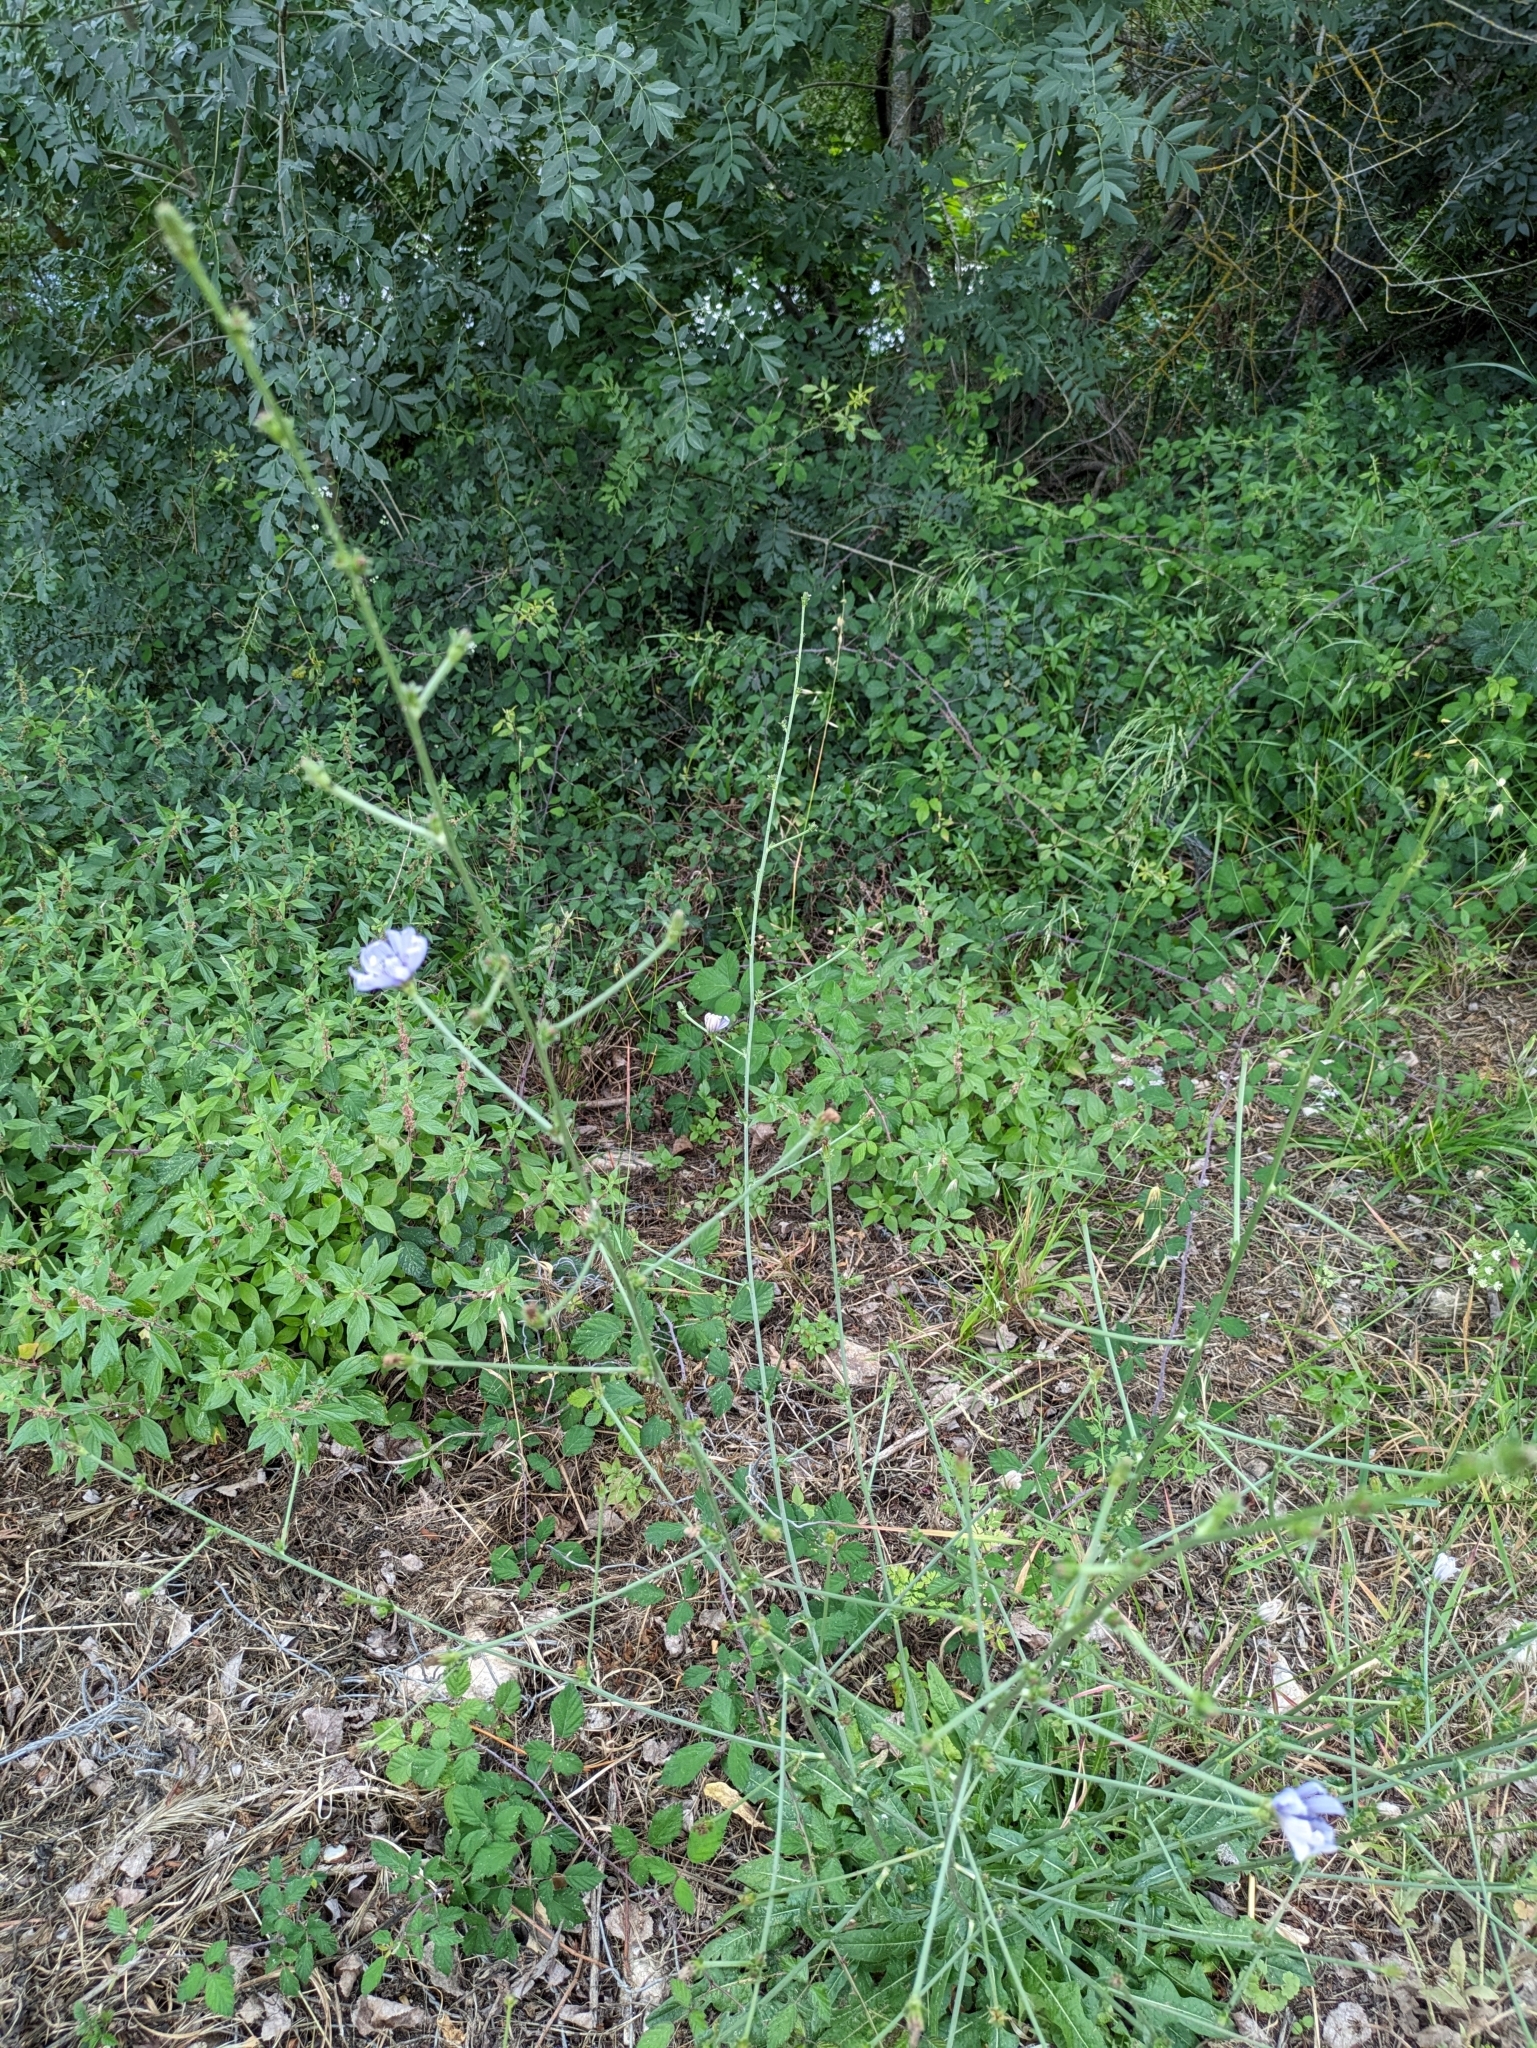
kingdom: Plantae
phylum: Tracheophyta
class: Magnoliopsida
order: Asterales
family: Asteraceae
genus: Cichorium
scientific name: Cichorium intybus
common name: Chicory
